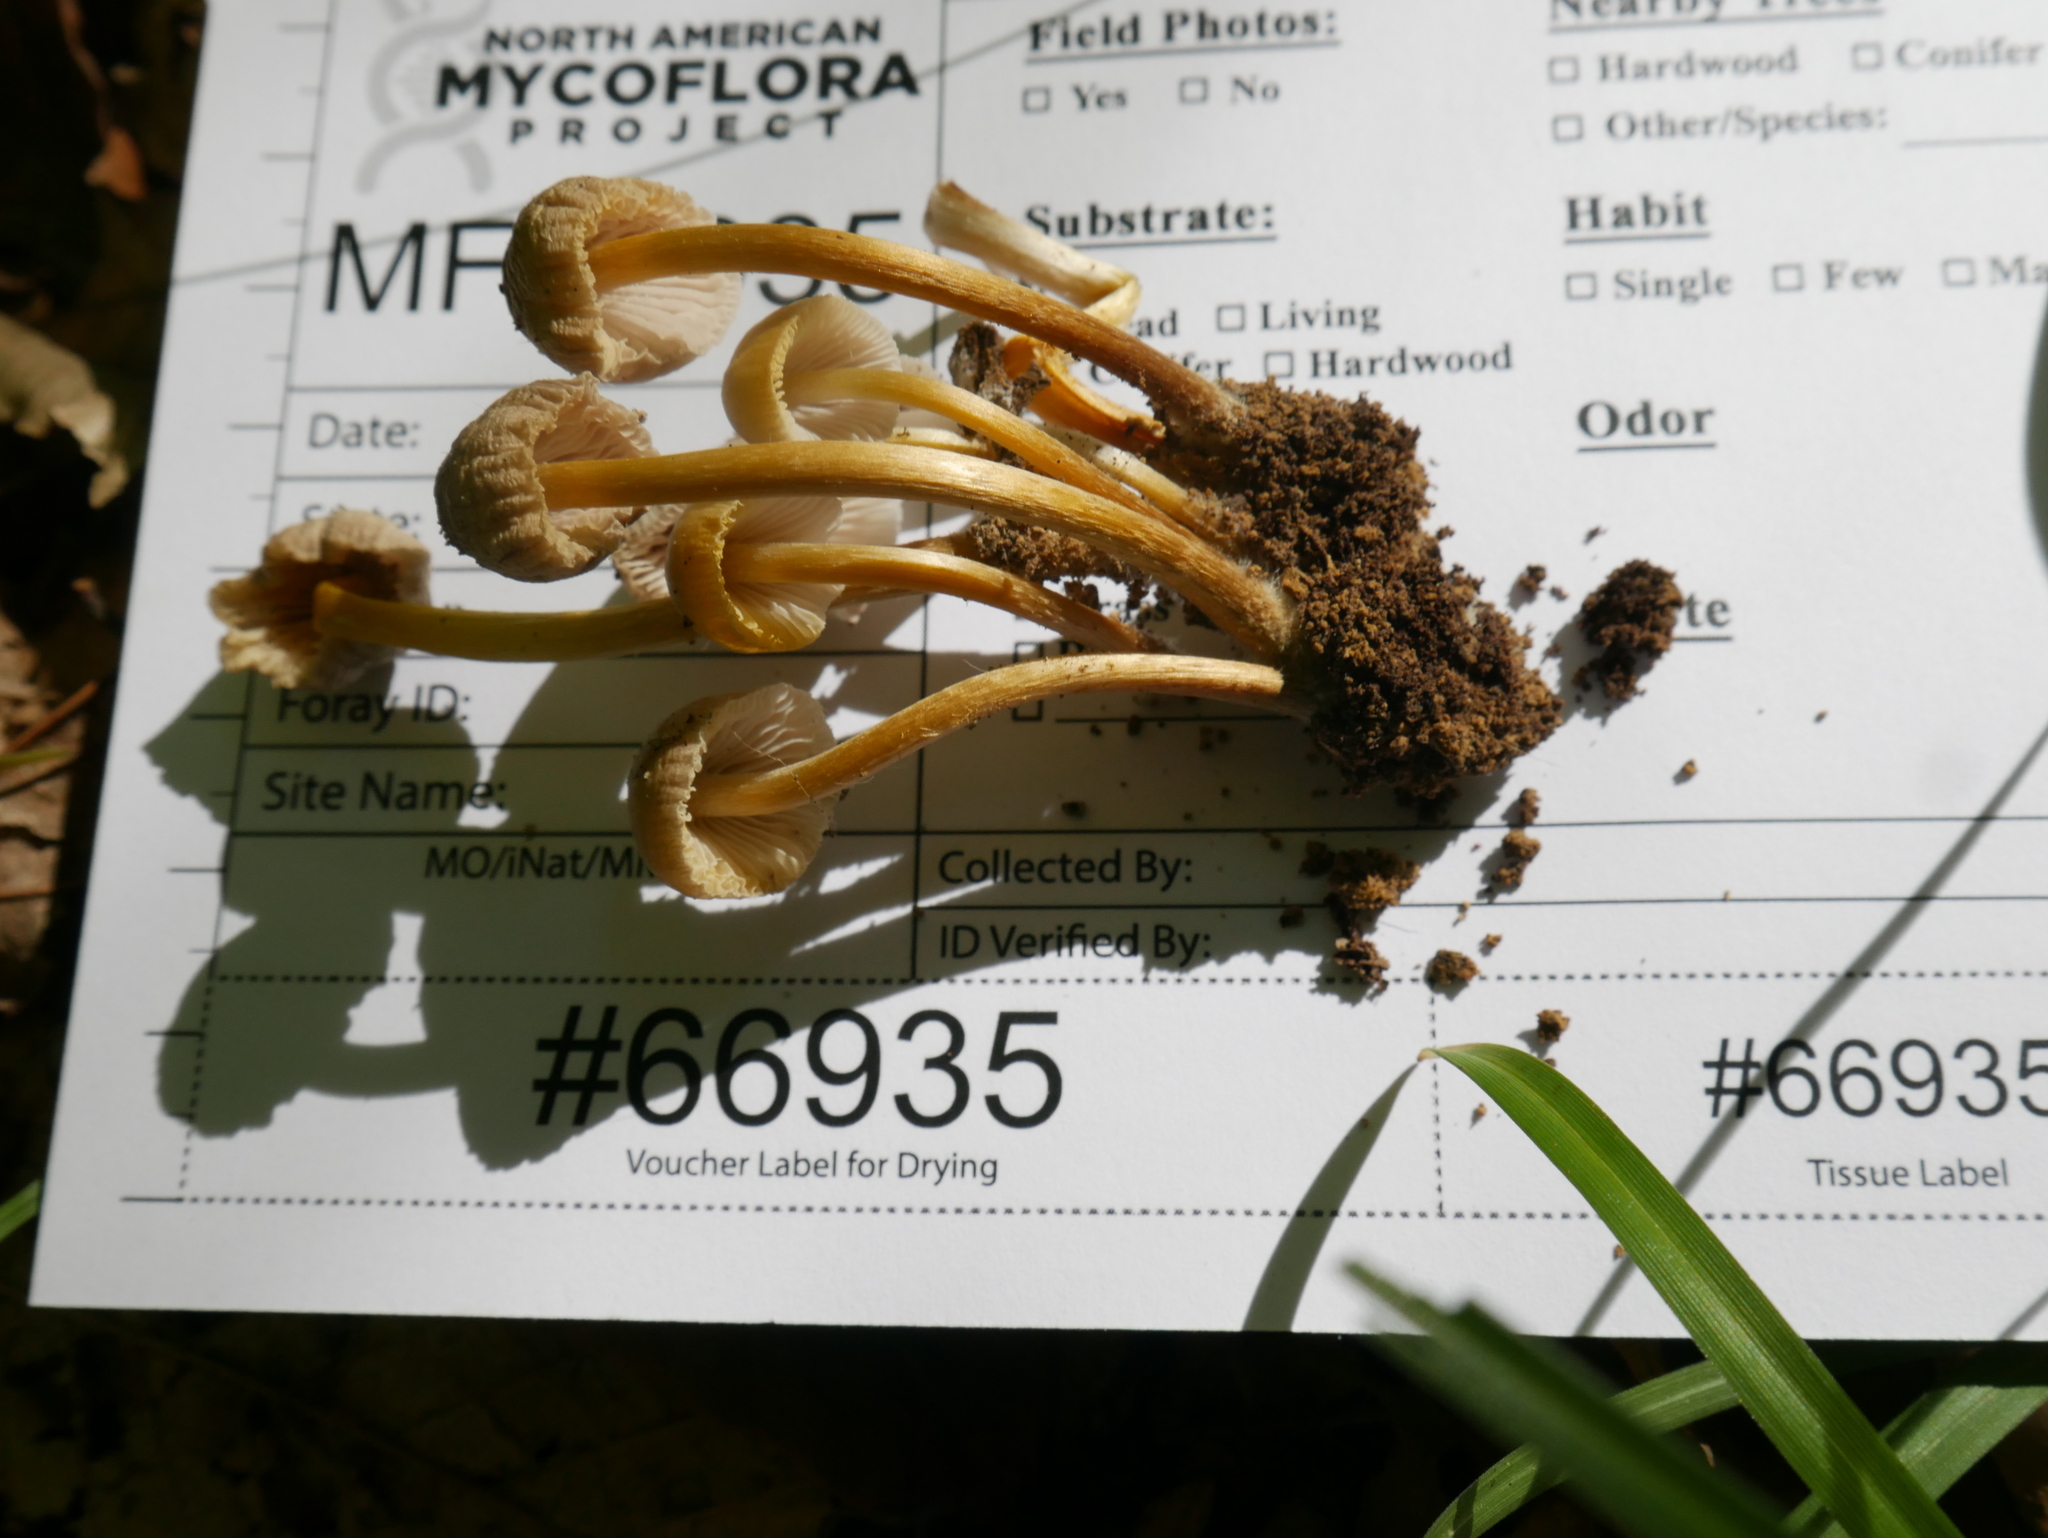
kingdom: Fungi
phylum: Basidiomycota
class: Agaricomycetes
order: Agaricales
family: Mycenaceae
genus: Mycena
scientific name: Mycena galericulata
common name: Bonnet mycena
